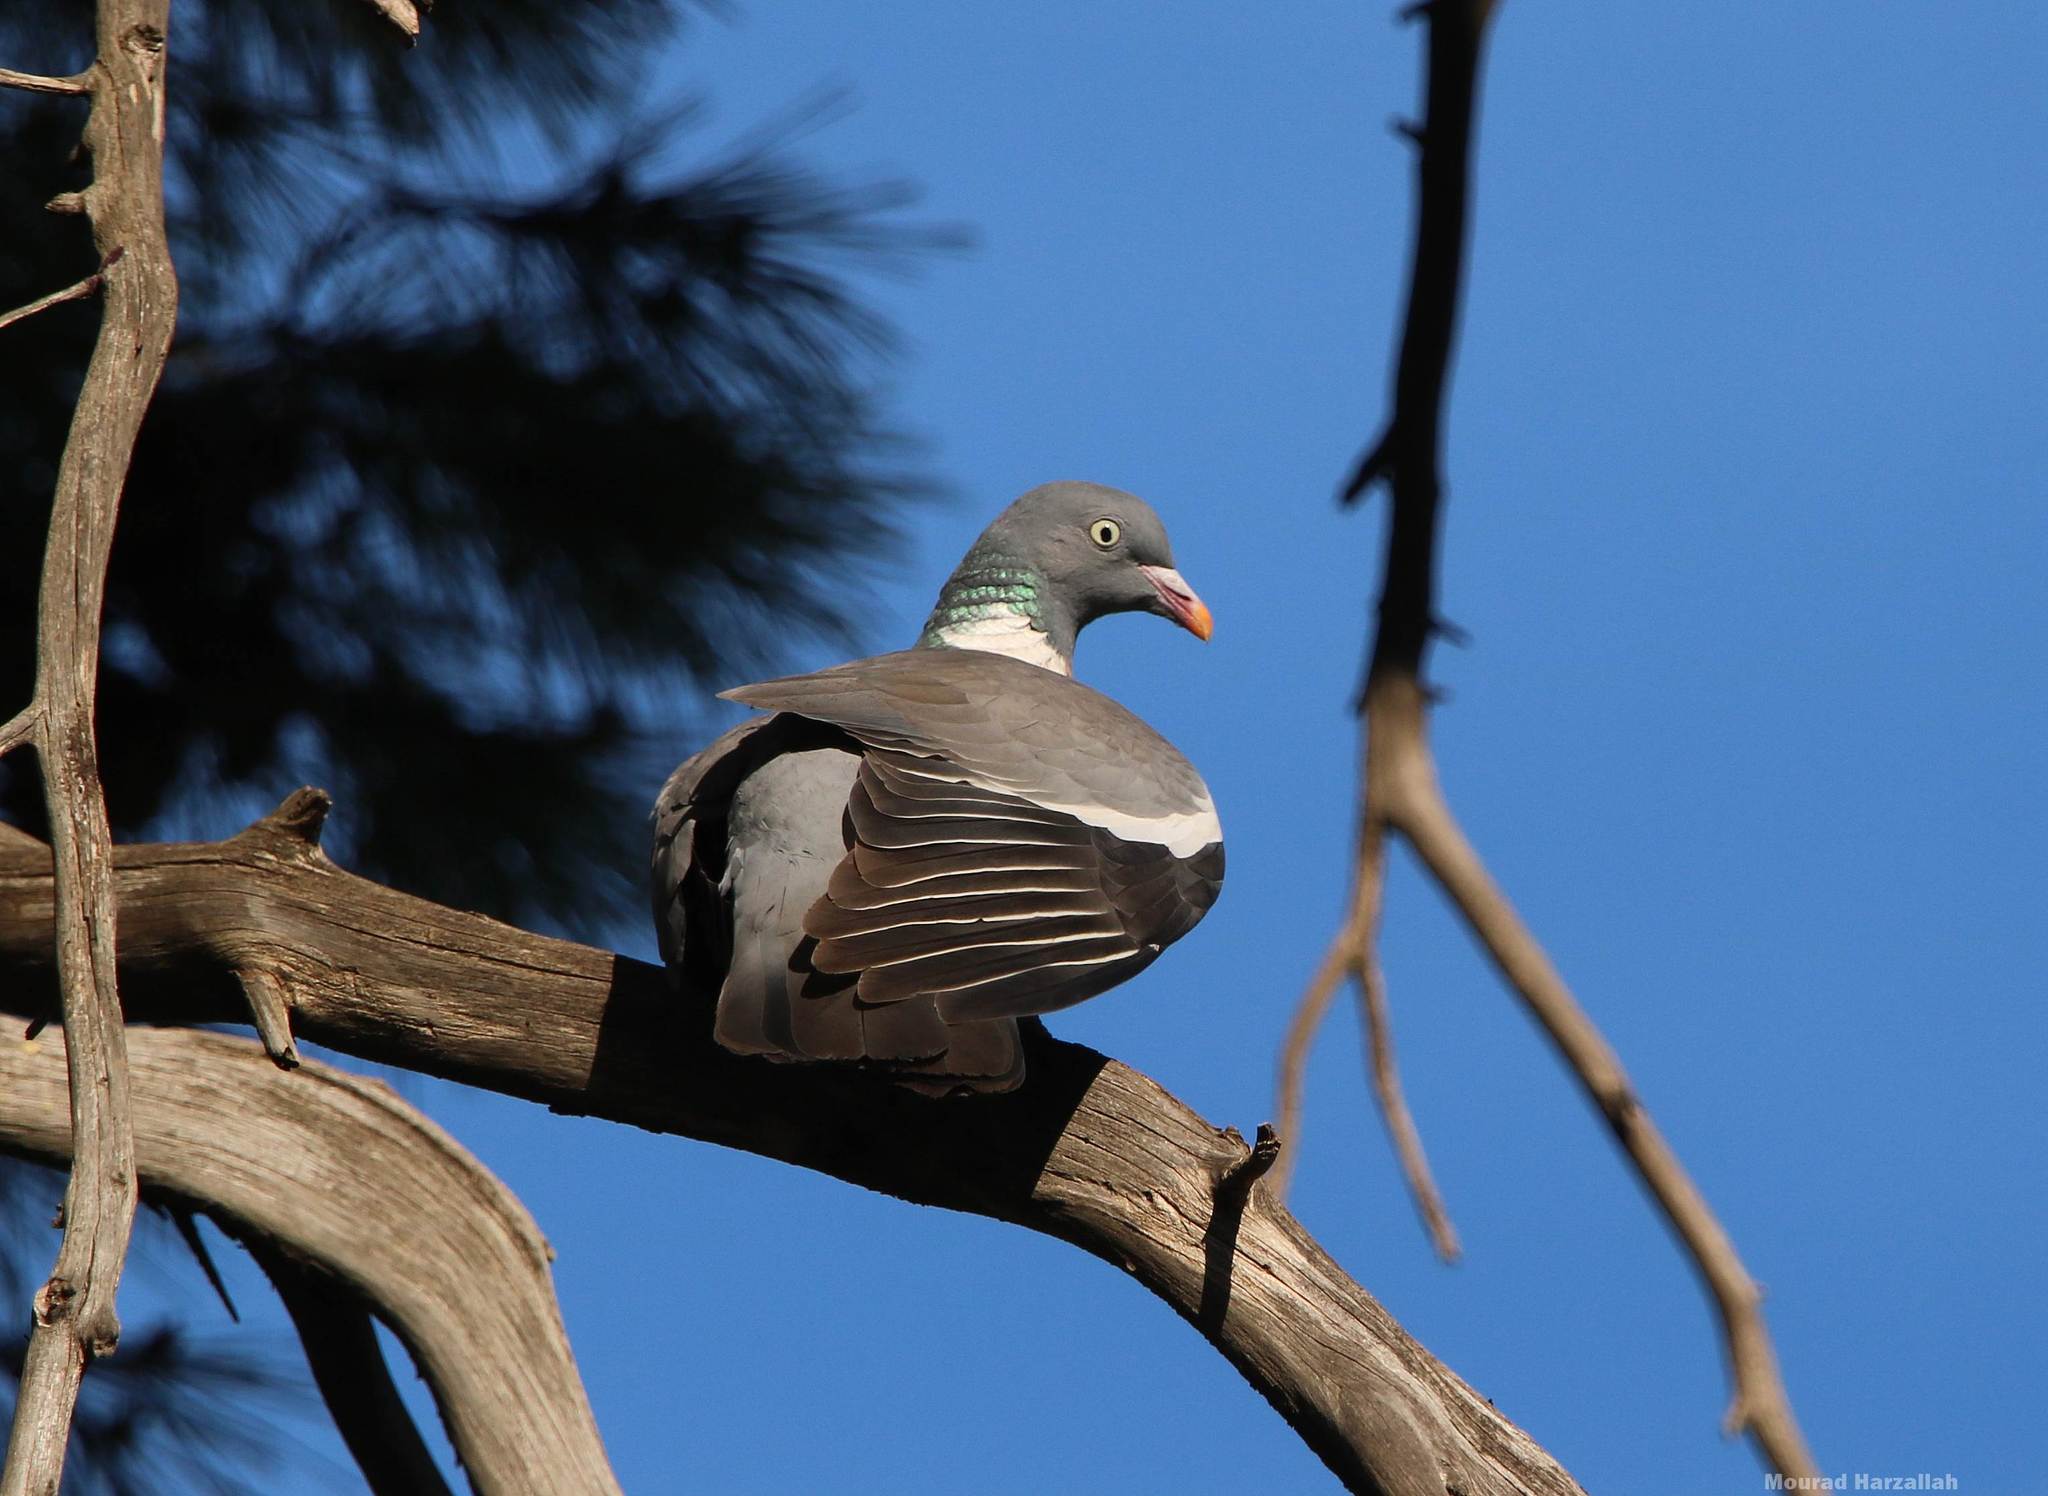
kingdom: Animalia
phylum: Chordata
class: Aves
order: Columbiformes
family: Columbidae
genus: Columba
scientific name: Columba palumbus
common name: Common wood pigeon
